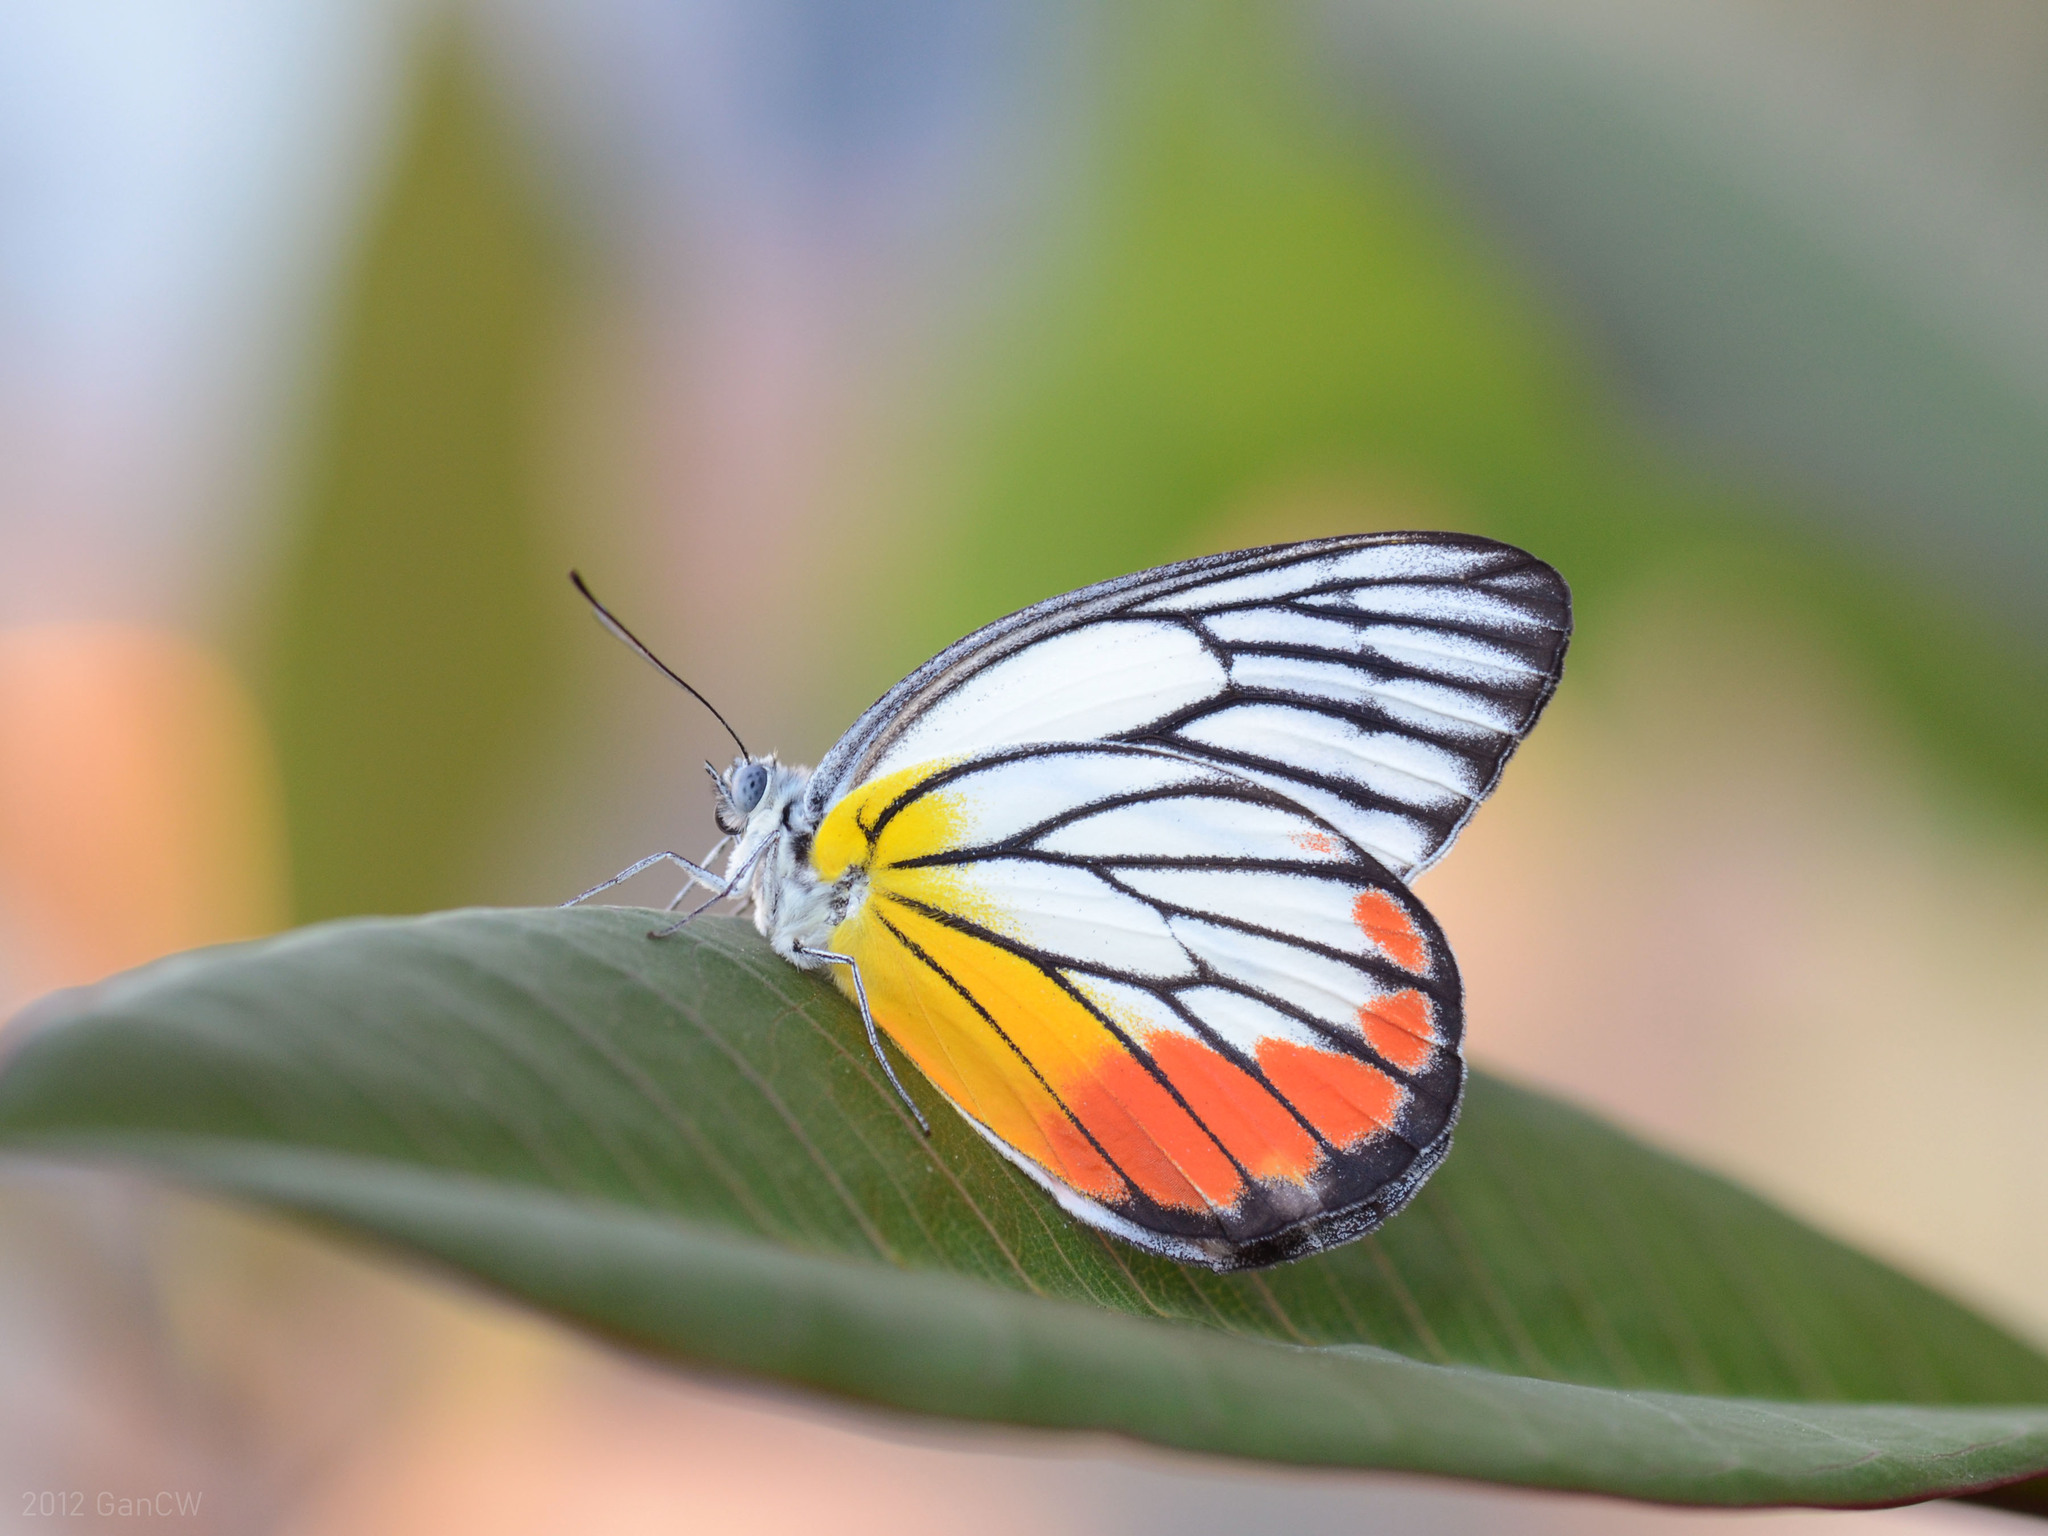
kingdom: Animalia
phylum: Arthropoda
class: Insecta
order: Lepidoptera
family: Pieridae
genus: Delias
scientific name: Delias hyparete
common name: Painted jezebel
